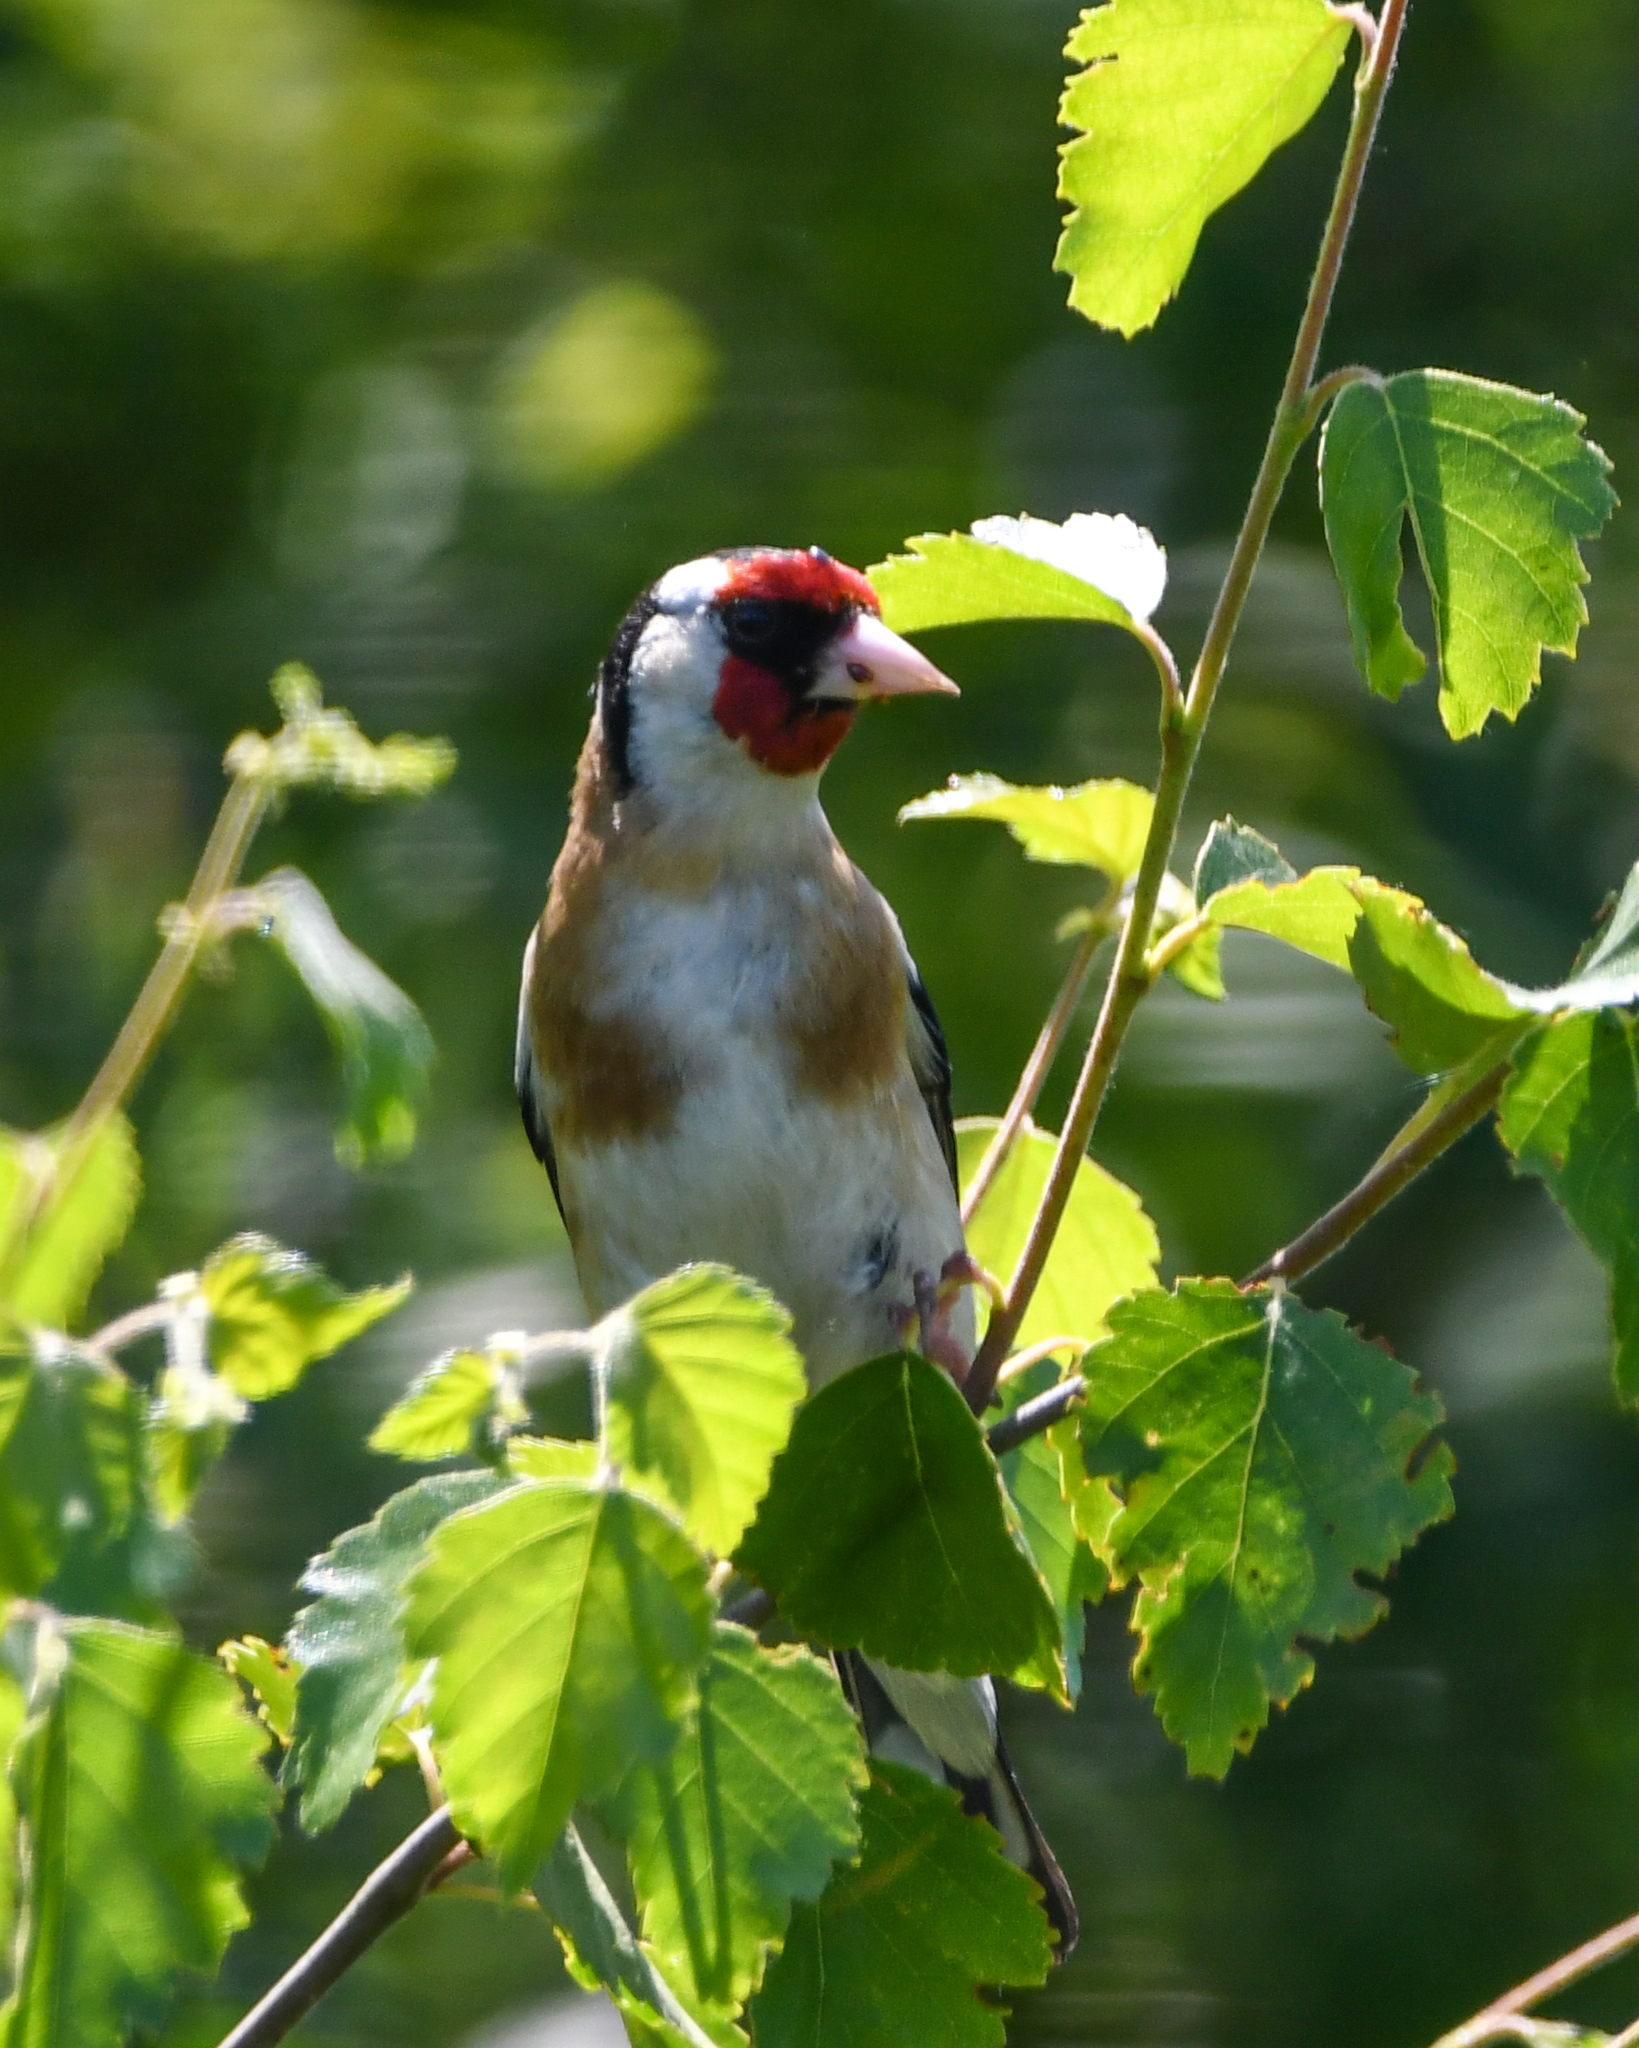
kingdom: Animalia
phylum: Chordata
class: Aves
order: Passeriformes
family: Fringillidae
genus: Carduelis
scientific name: Carduelis carduelis
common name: European goldfinch
